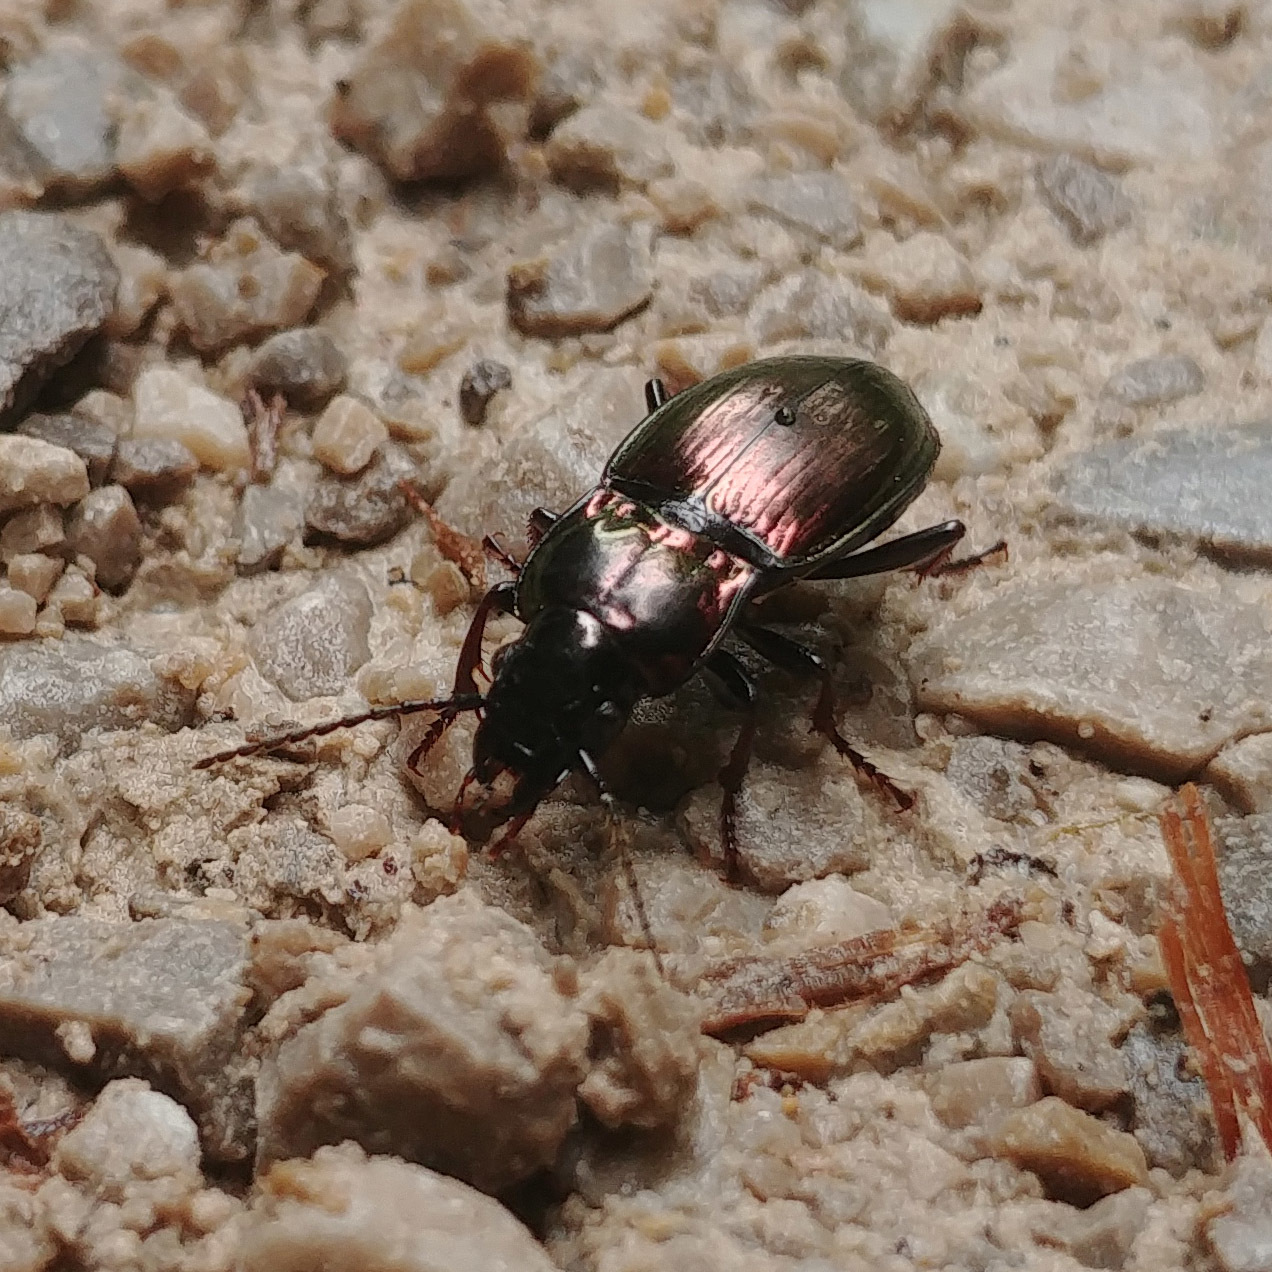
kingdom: Animalia
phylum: Arthropoda
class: Insecta
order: Coleoptera
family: Carabidae
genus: Pterostichus
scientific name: Pterostichus burmeisteri
